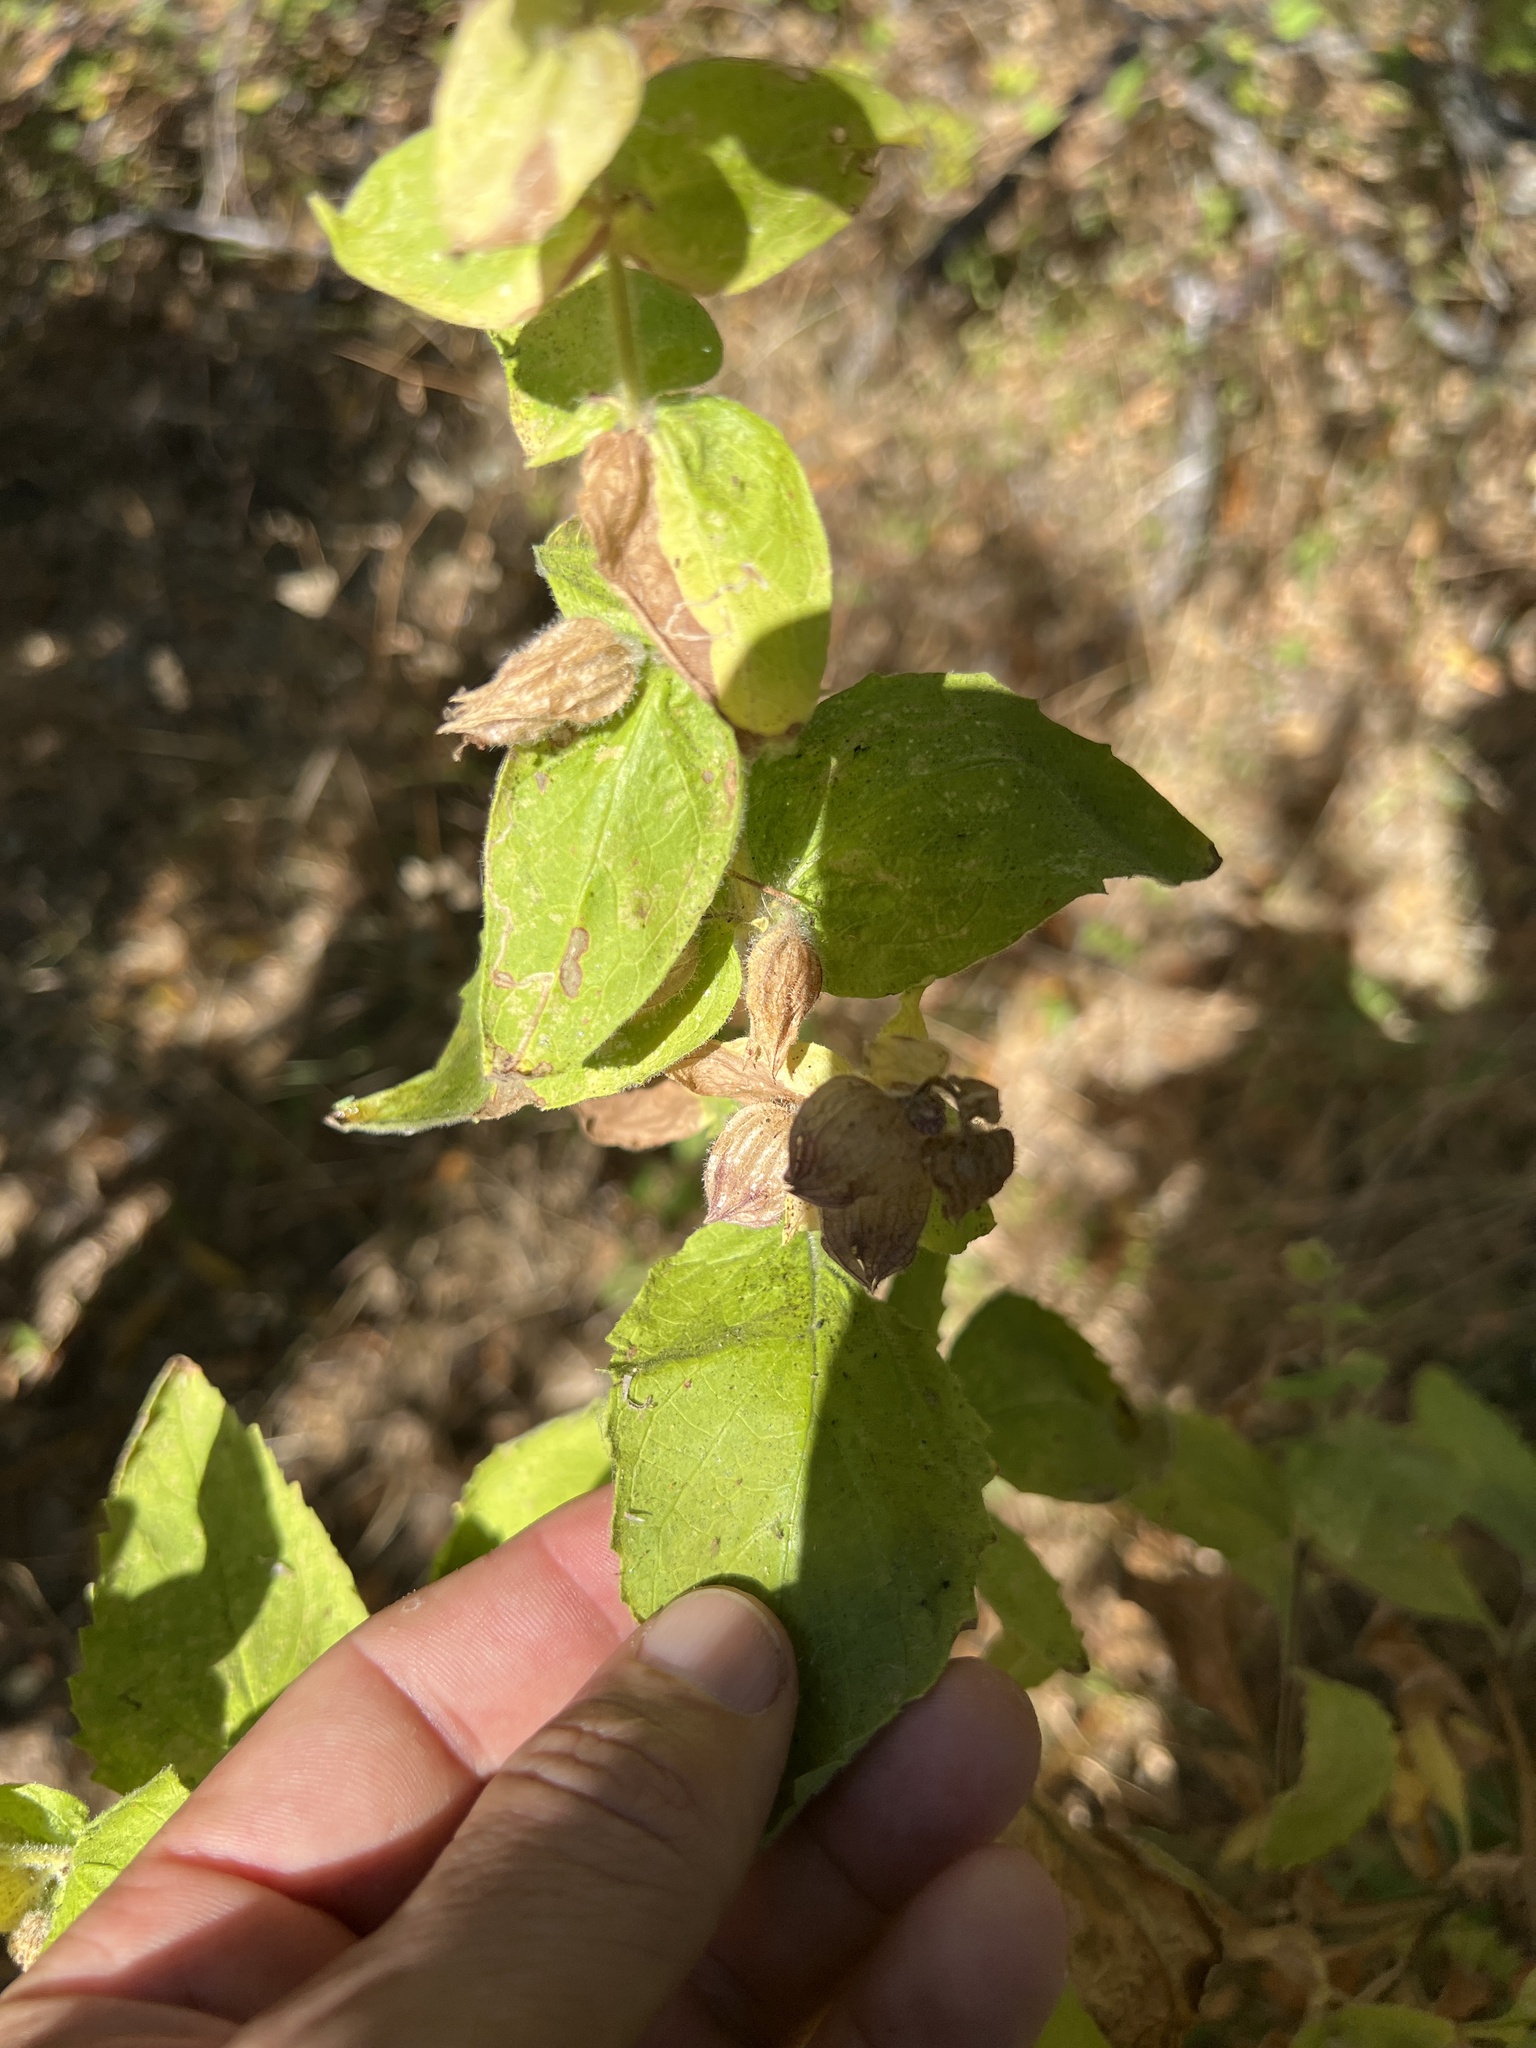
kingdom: Plantae
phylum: Tracheophyta
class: Magnoliopsida
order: Lamiales
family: Lamiaceae
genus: Lepechinia
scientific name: Lepechinia calycina
